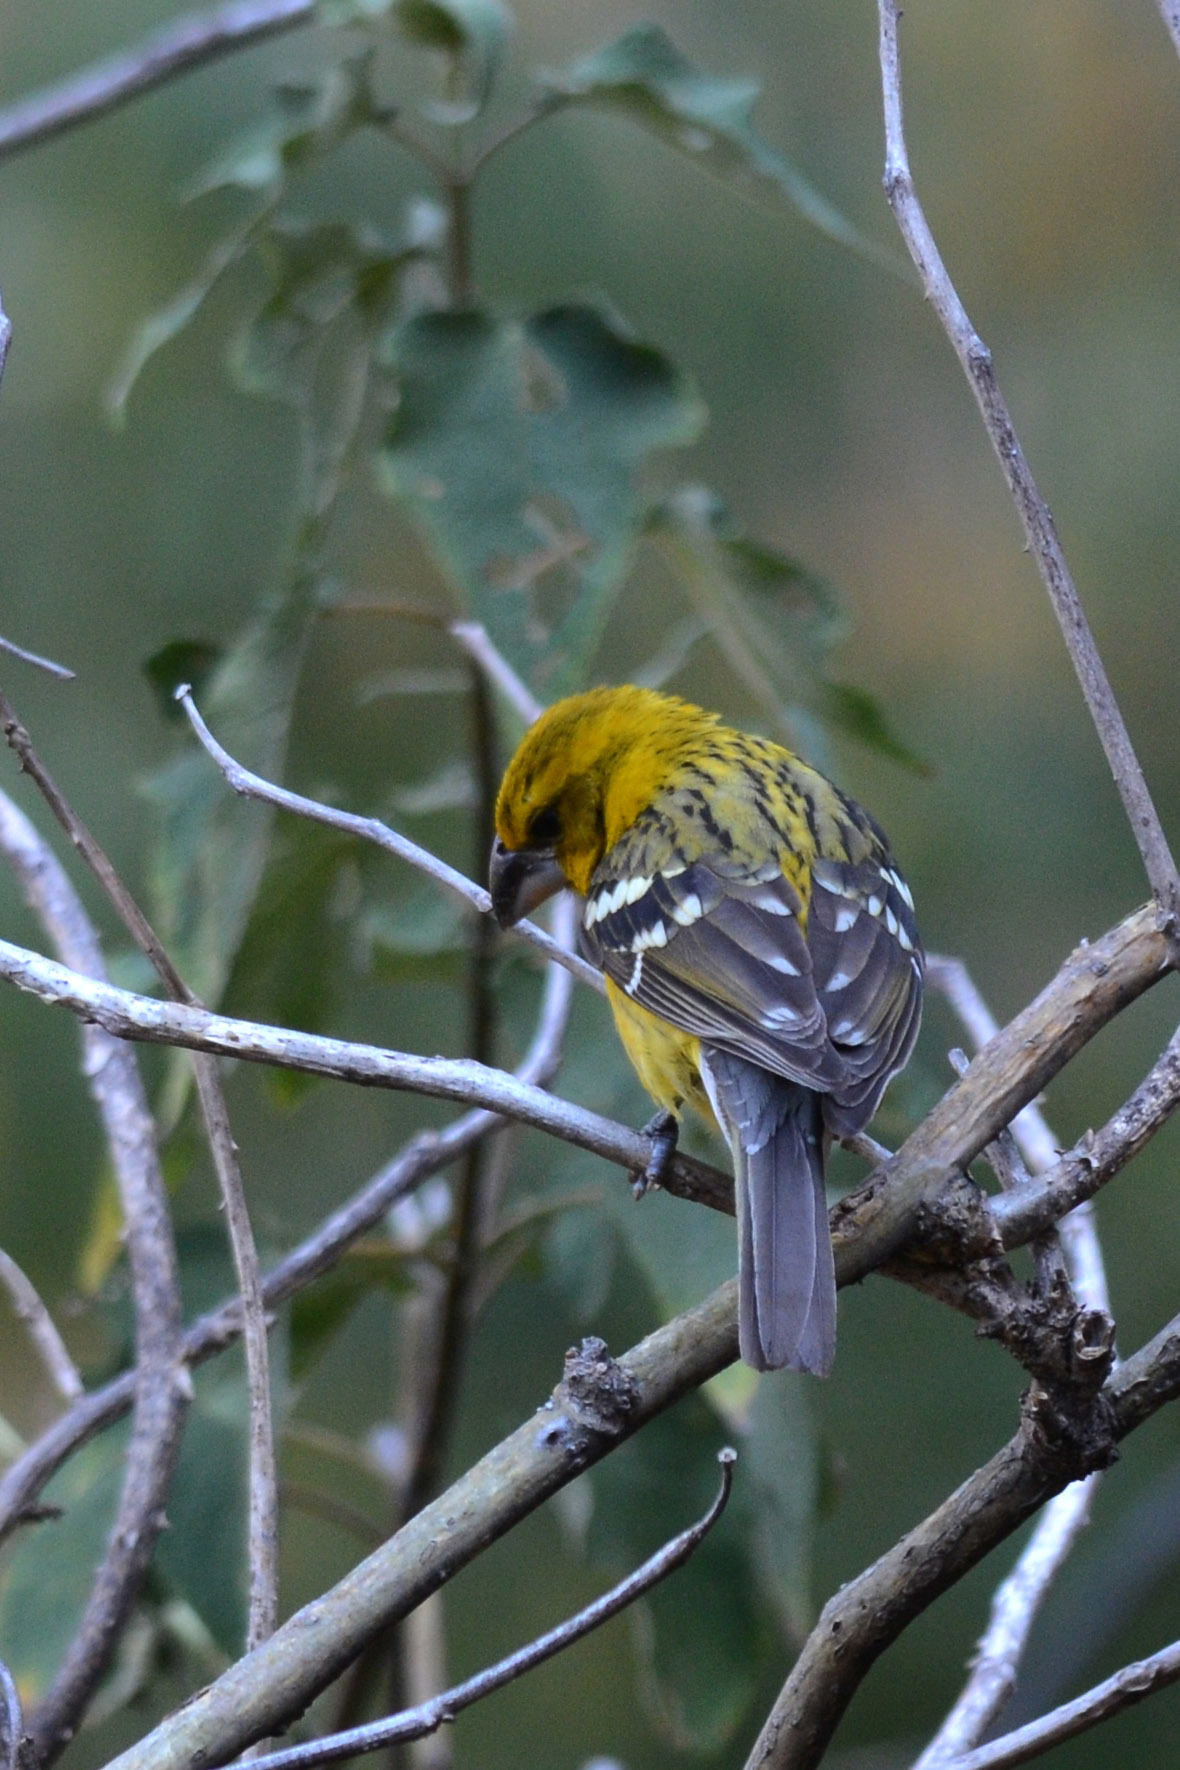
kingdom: Animalia
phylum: Chordata
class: Aves
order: Passeriformes
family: Cardinalidae
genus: Pheucticus
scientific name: Pheucticus chrysopeplus
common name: Yellow grosbeak
